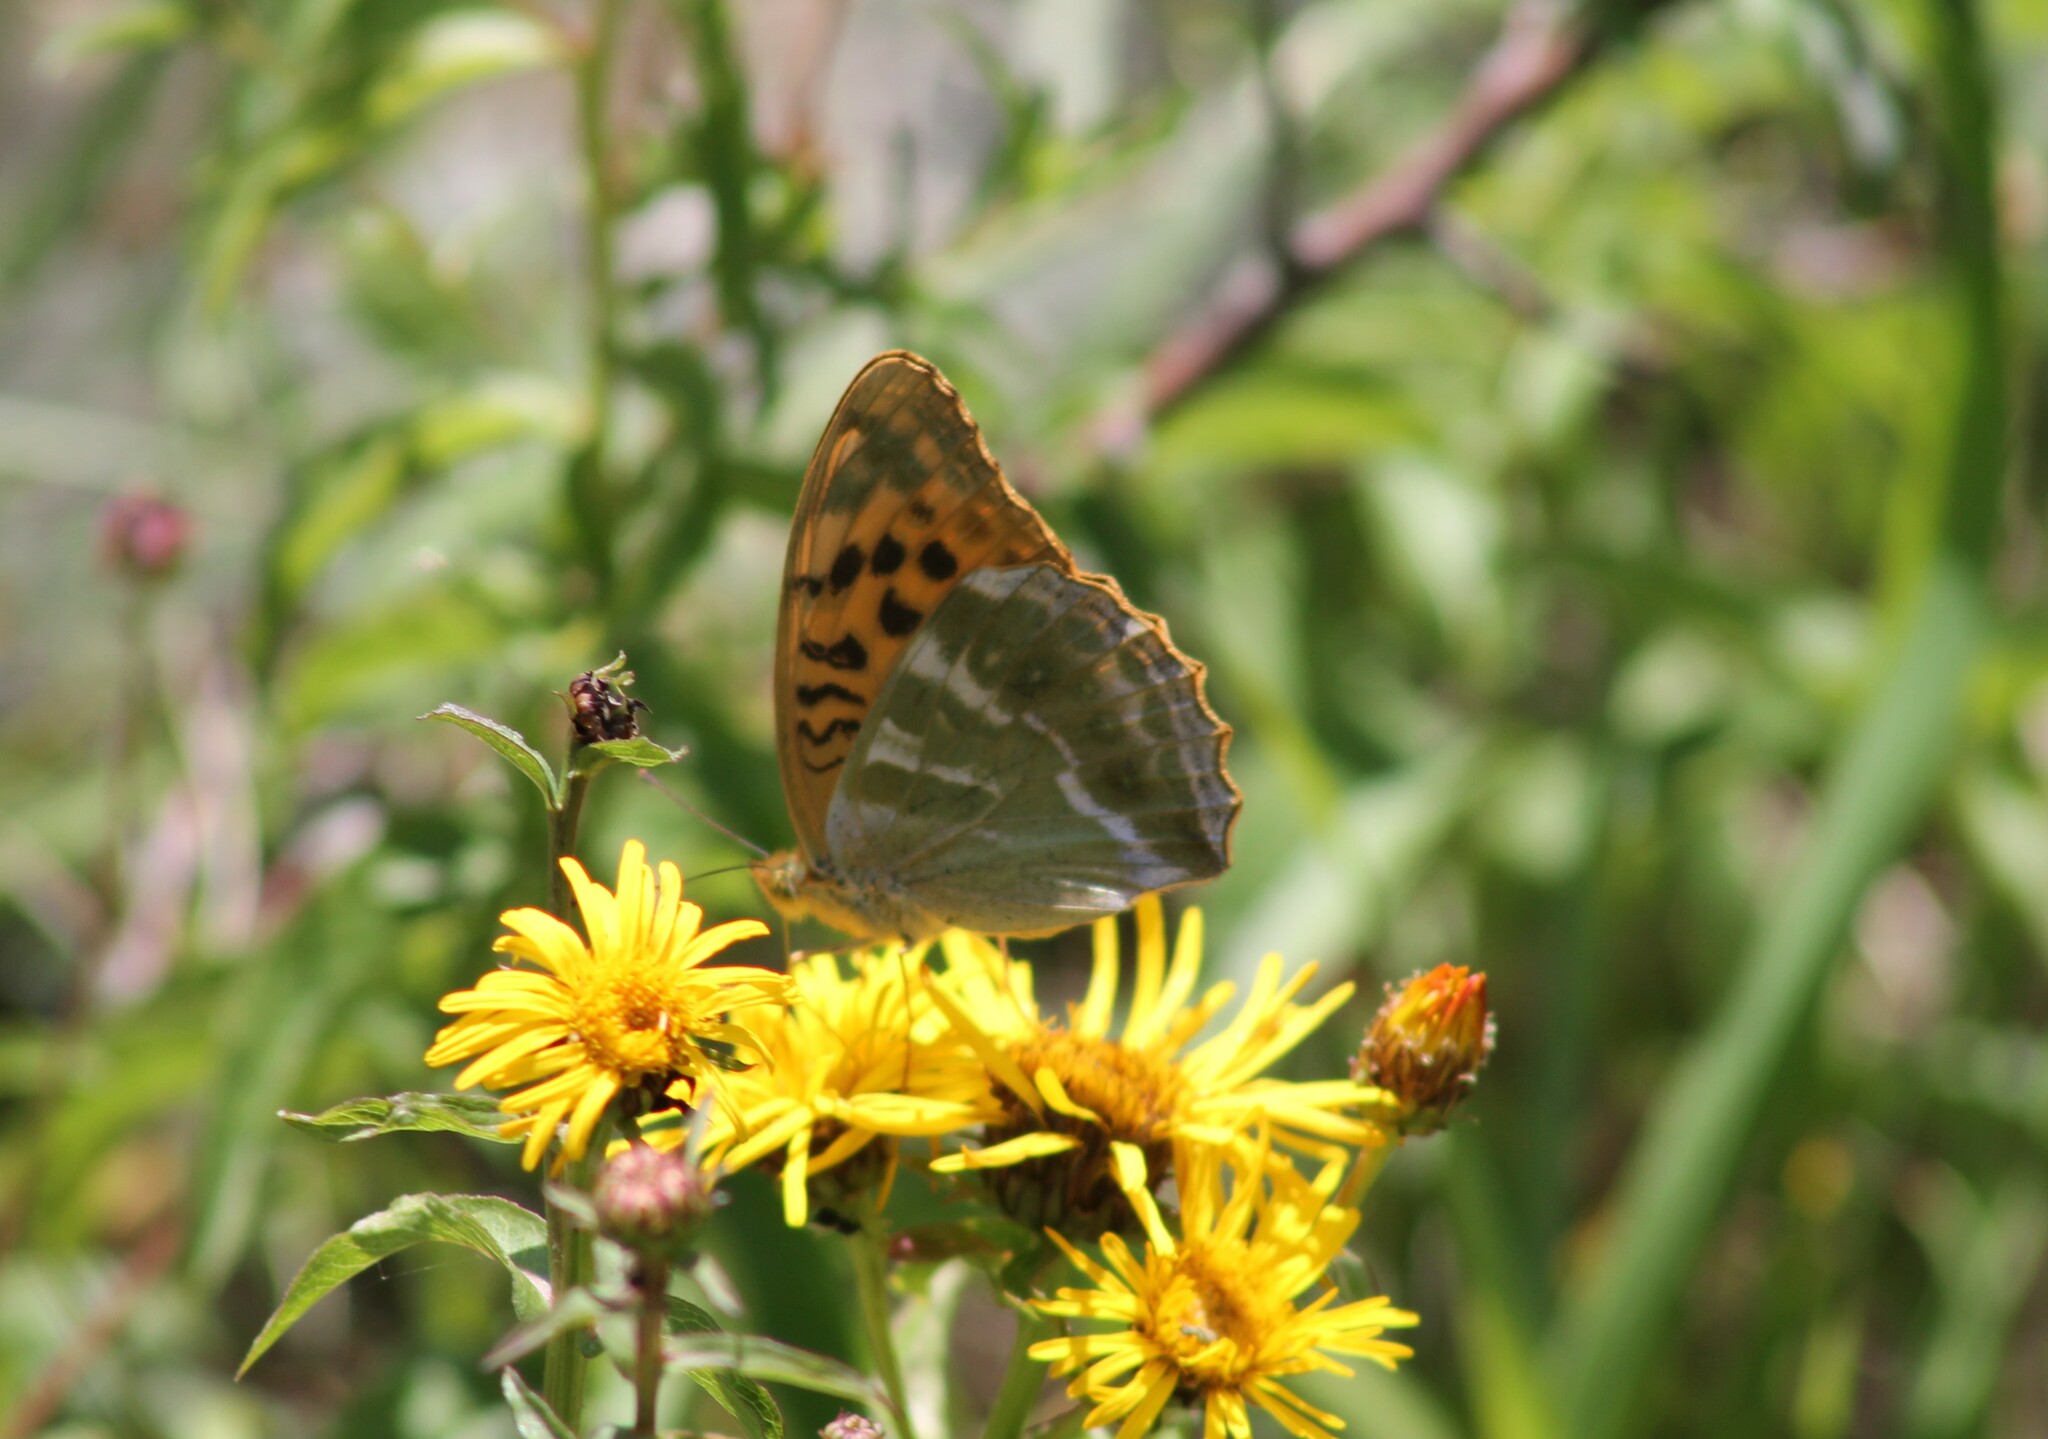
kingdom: Animalia
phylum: Arthropoda
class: Insecta
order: Lepidoptera
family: Nymphalidae
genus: Argynnis
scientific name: Argynnis paphia
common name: Silver-washed fritillary
